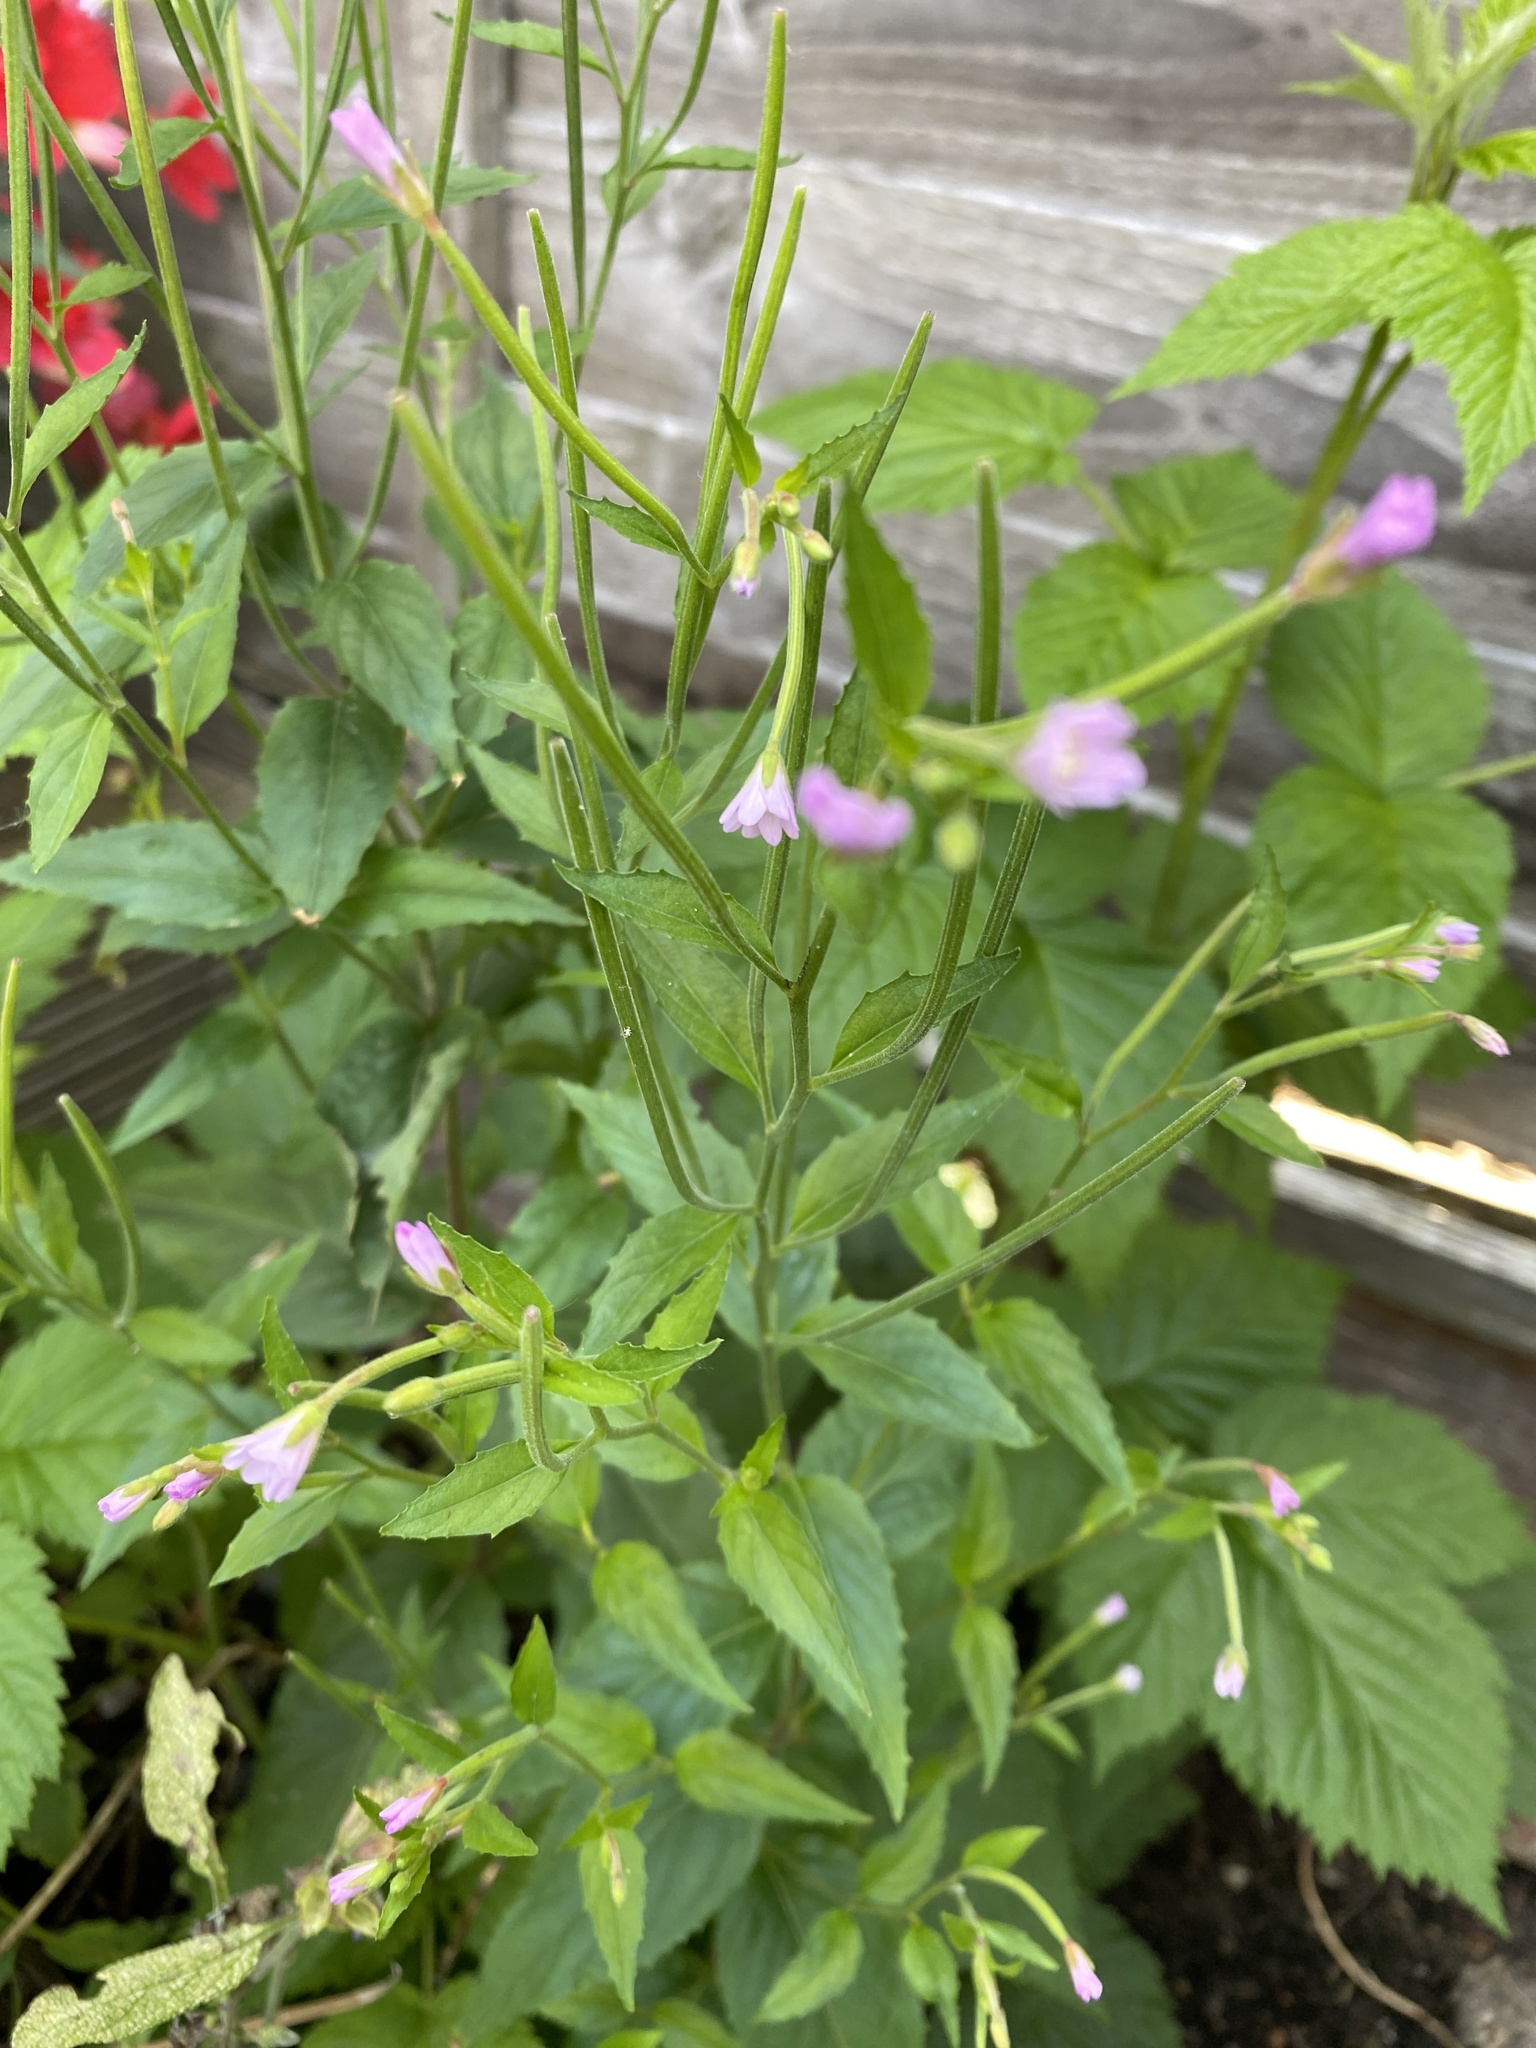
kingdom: Plantae
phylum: Tracheophyta
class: Magnoliopsida
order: Myrtales
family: Onagraceae
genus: Epilobium
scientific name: Epilobium montanum
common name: Broad-leaved willowherb
